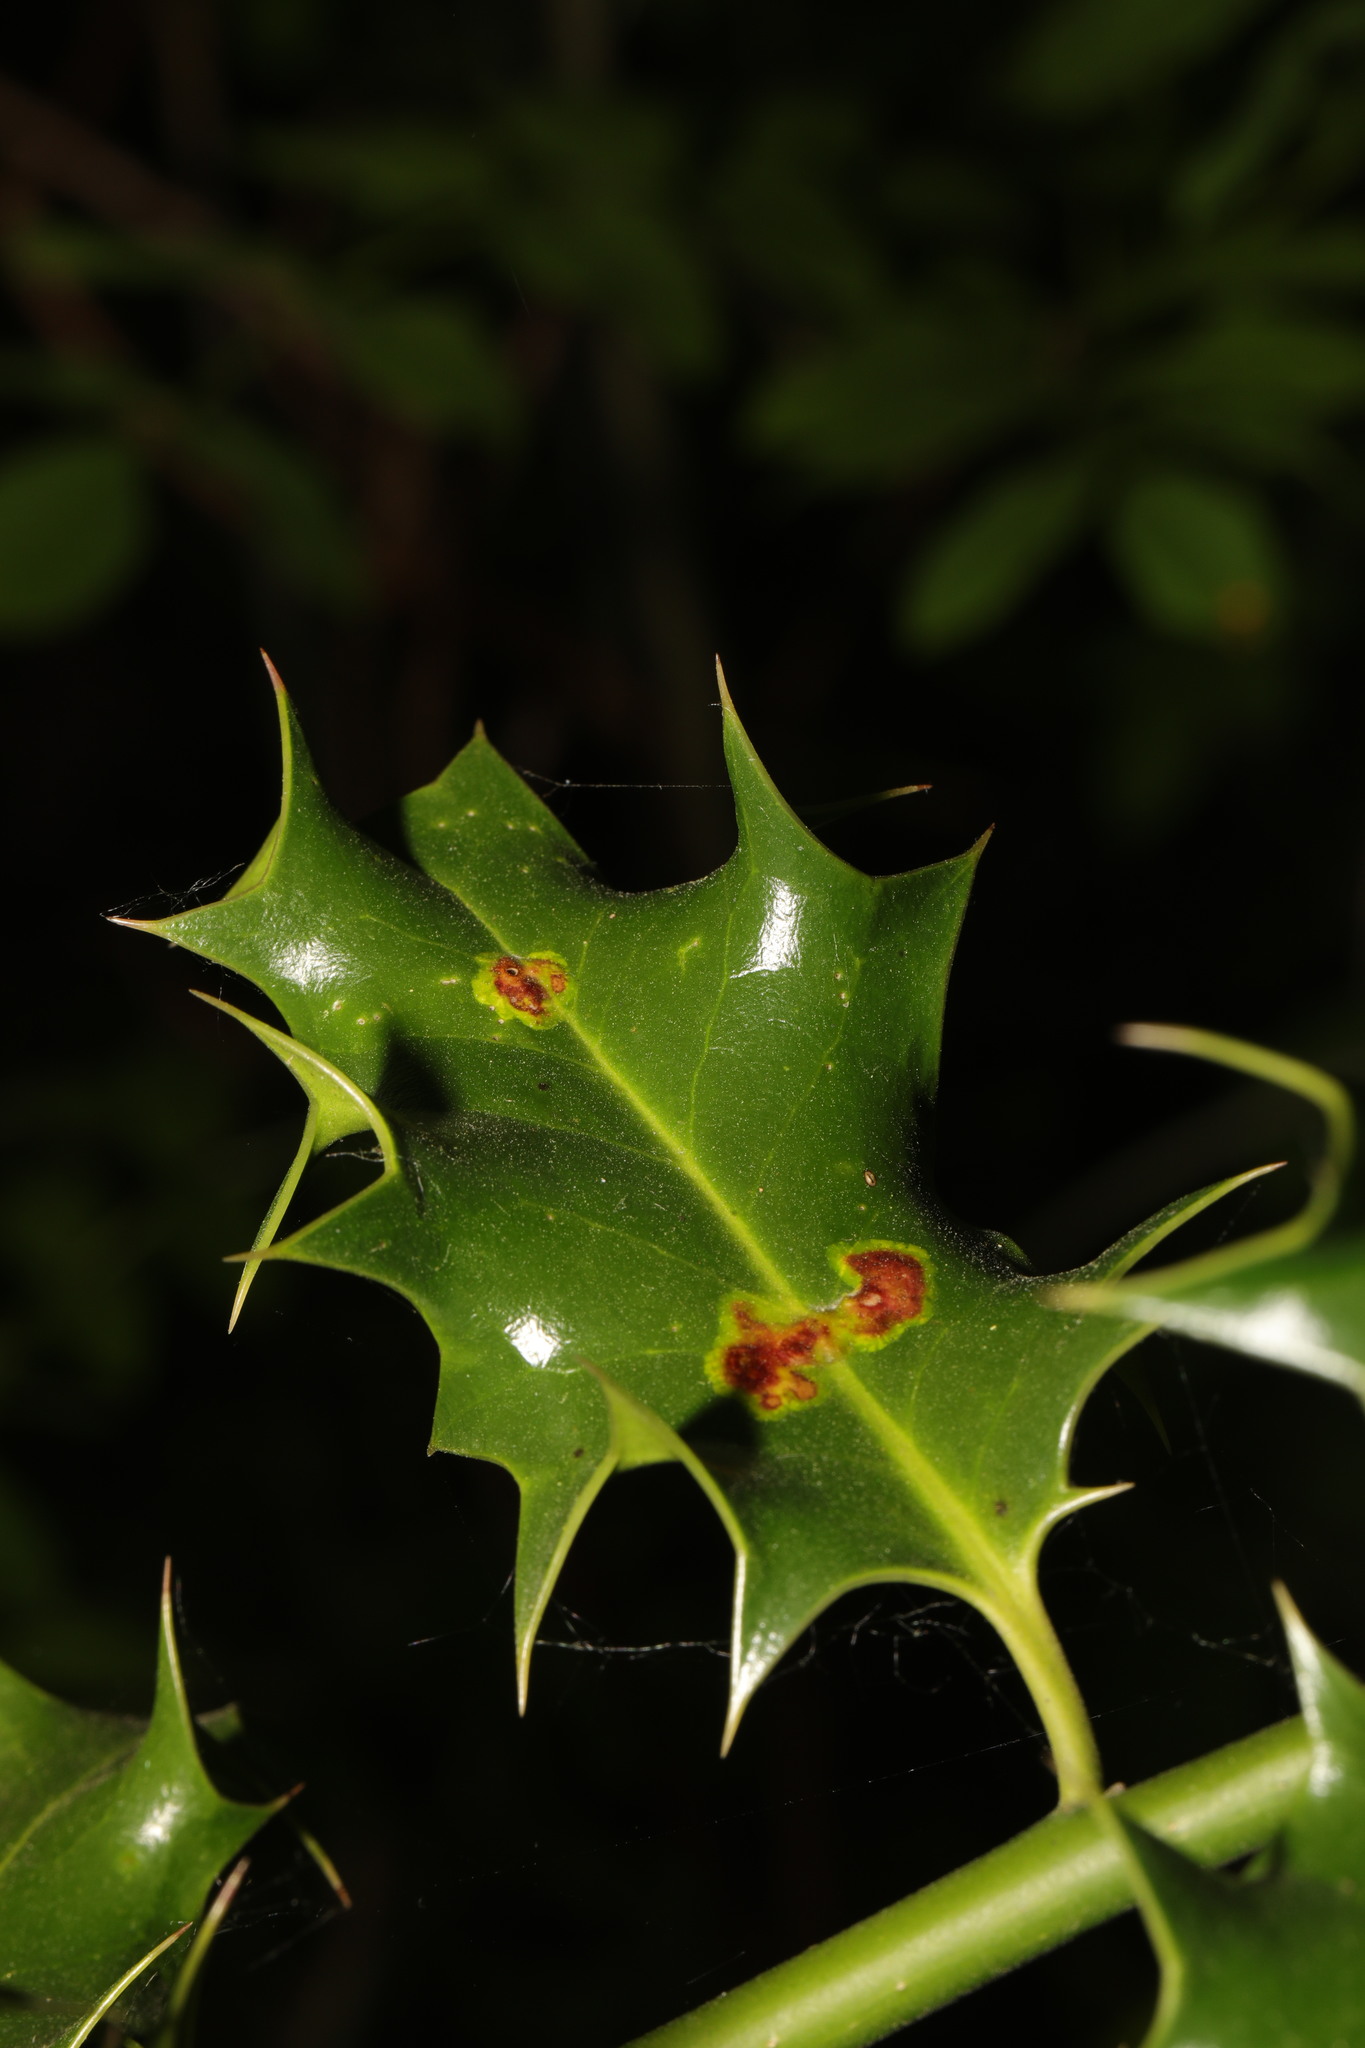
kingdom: Animalia
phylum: Arthropoda
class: Insecta
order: Diptera
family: Agromyzidae
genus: Phytomyza
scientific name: Phytomyza ilicis
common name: Holly leafminer
